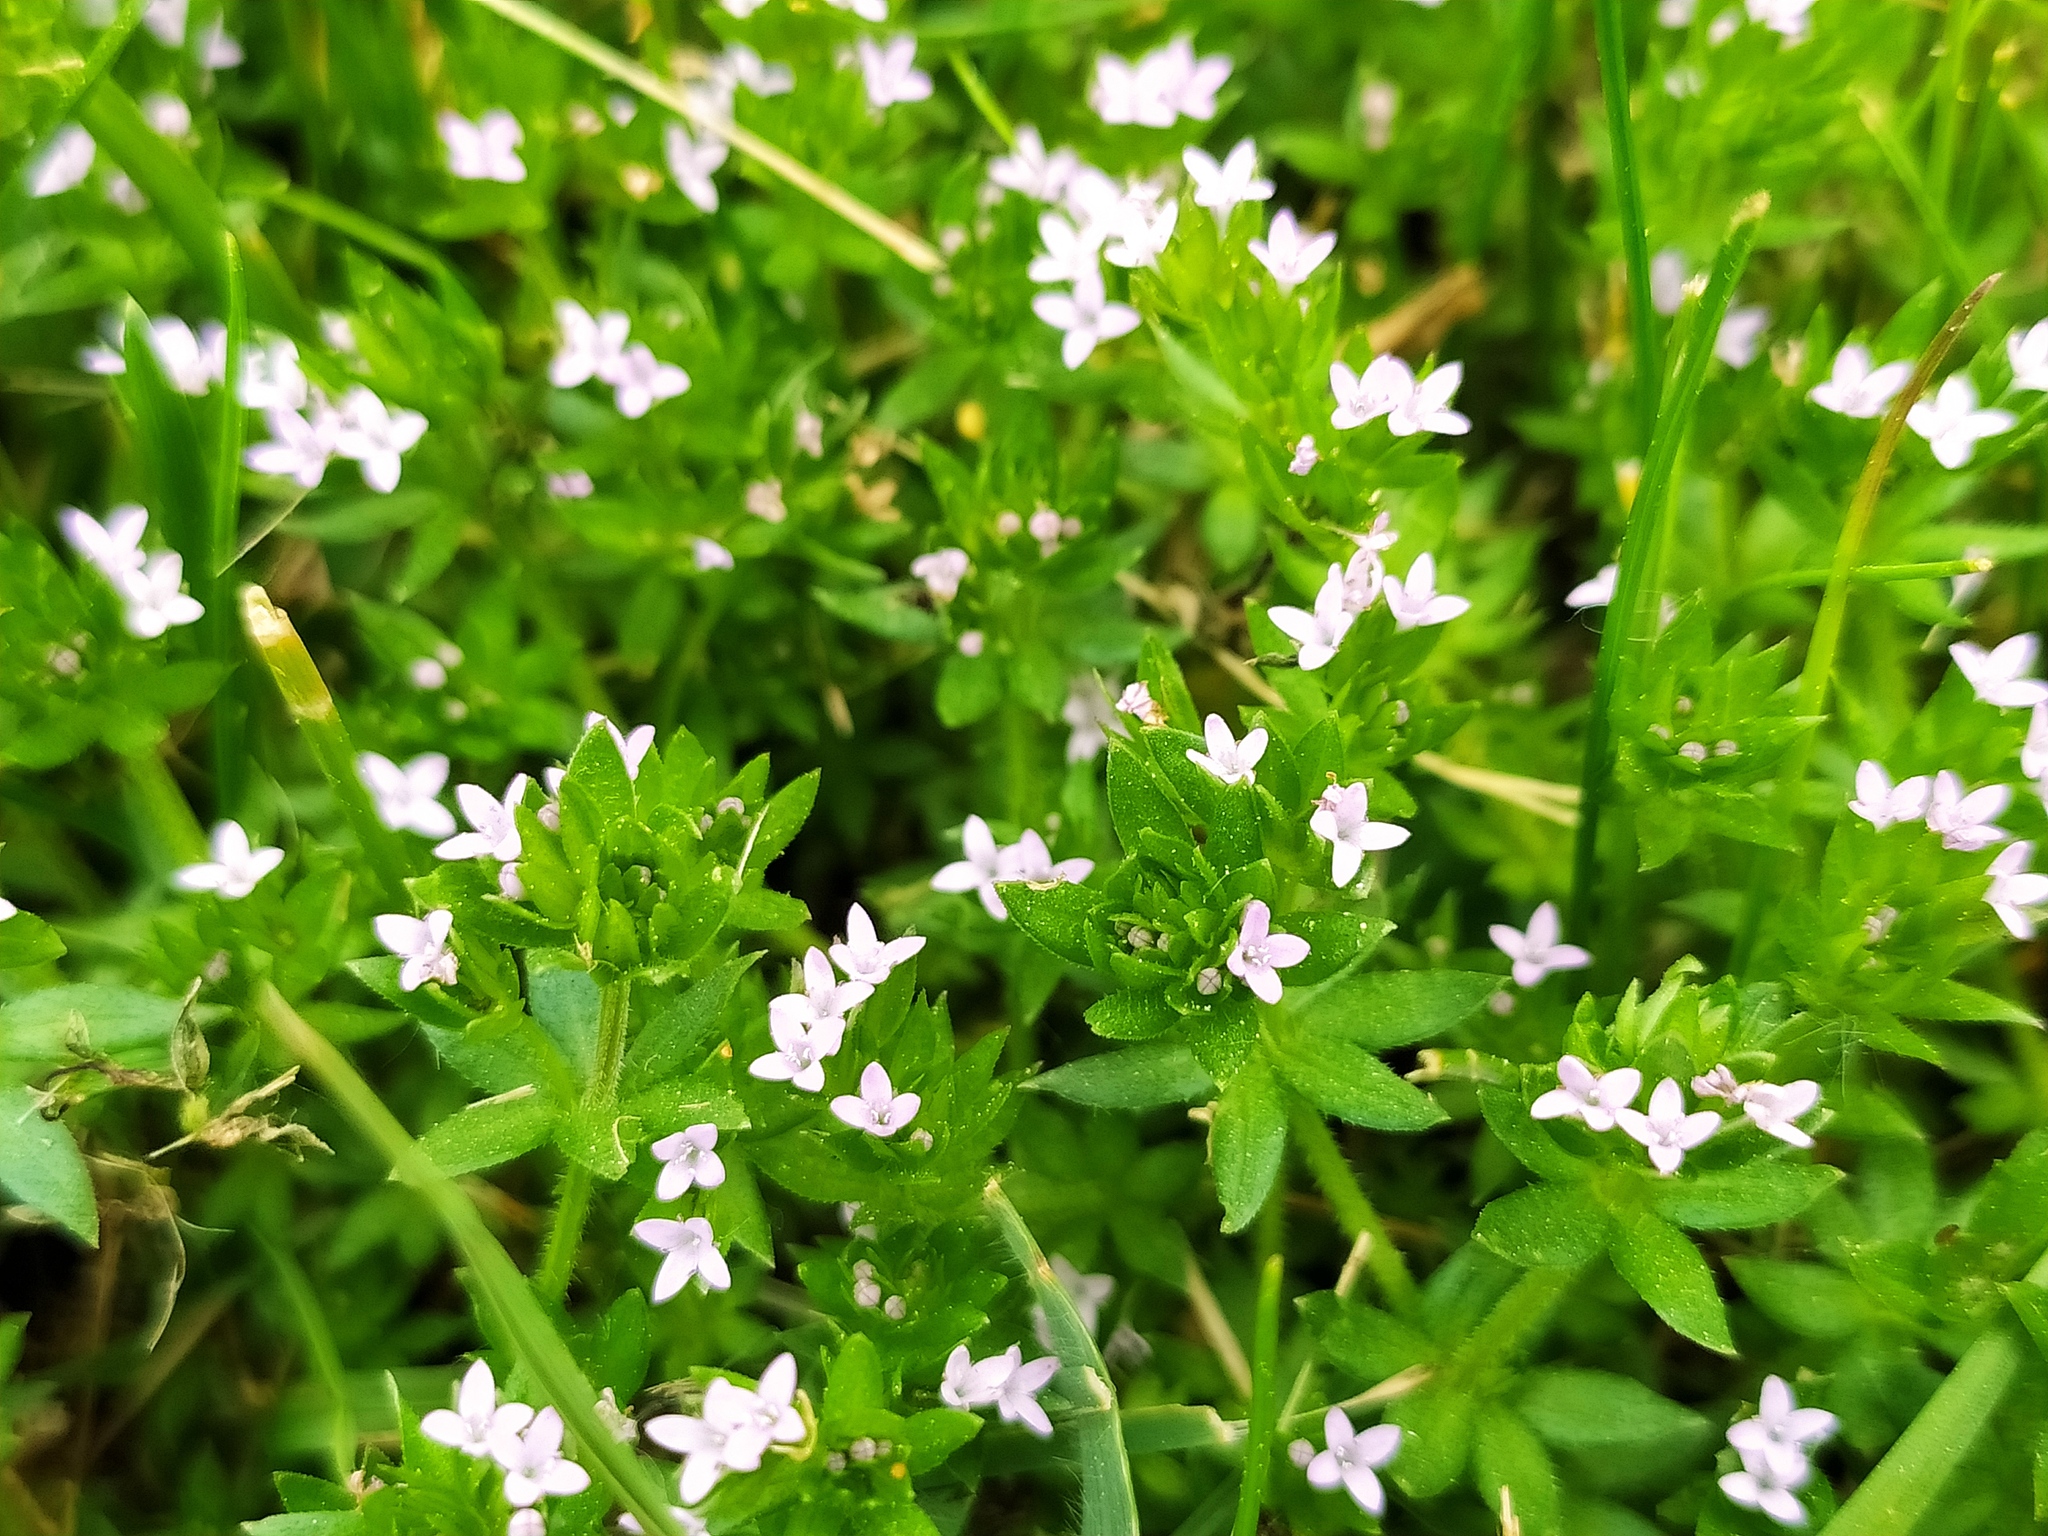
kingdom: Plantae
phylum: Tracheophyta
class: Magnoliopsida
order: Gentianales
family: Rubiaceae
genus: Sherardia
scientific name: Sherardia arvensis
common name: Field madder
